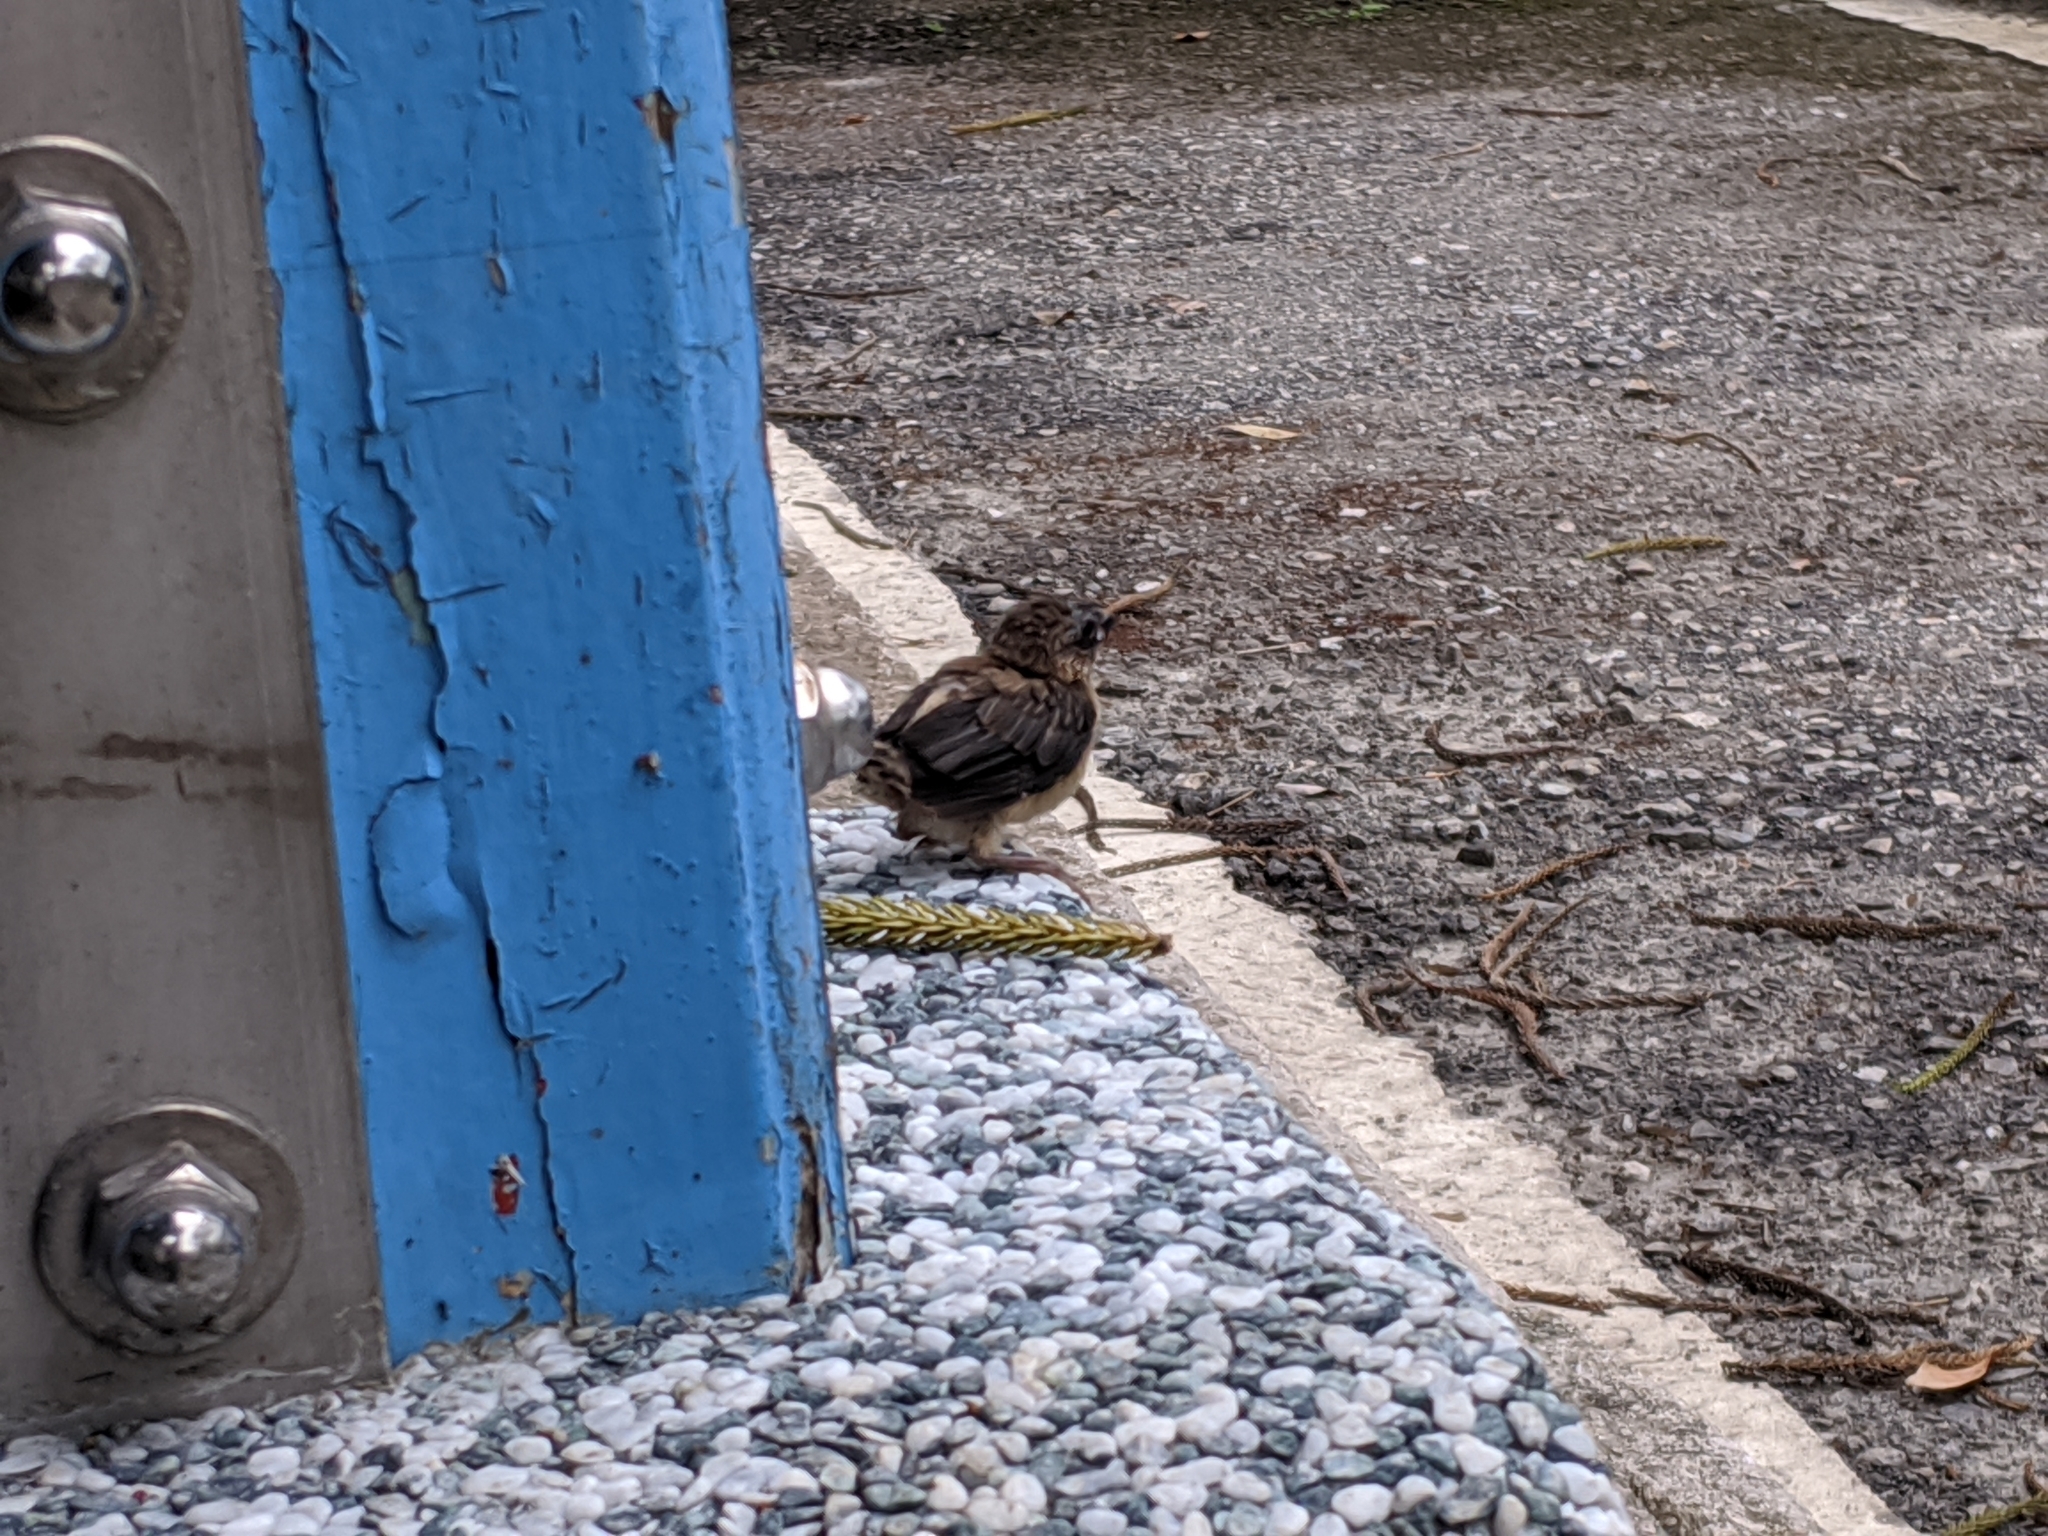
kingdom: Animalia
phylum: Chordata
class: Aves
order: Passeriformes
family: Estrildidae
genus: Lonchura
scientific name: Lonchura striata
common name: White-rumped munia
